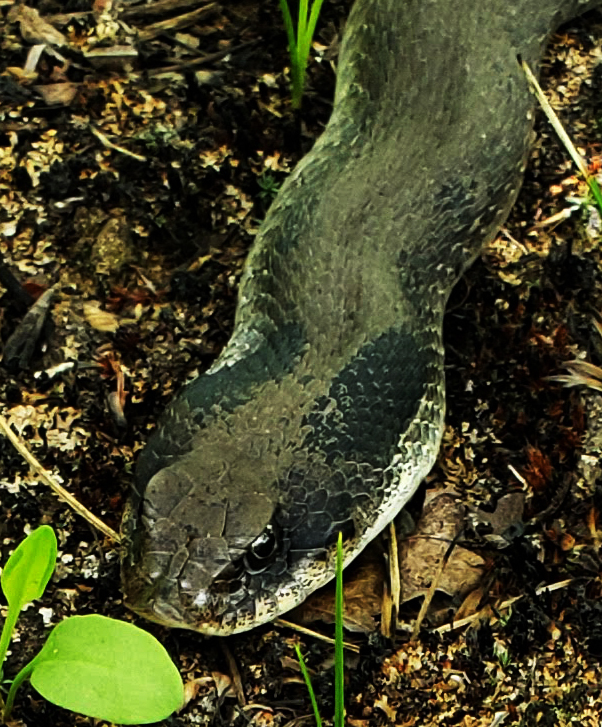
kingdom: Animalia
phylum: Chordata
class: Squamata
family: Colubridae
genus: Heterodon
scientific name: Heterodon platirhinos
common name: Eastern hognose snake
